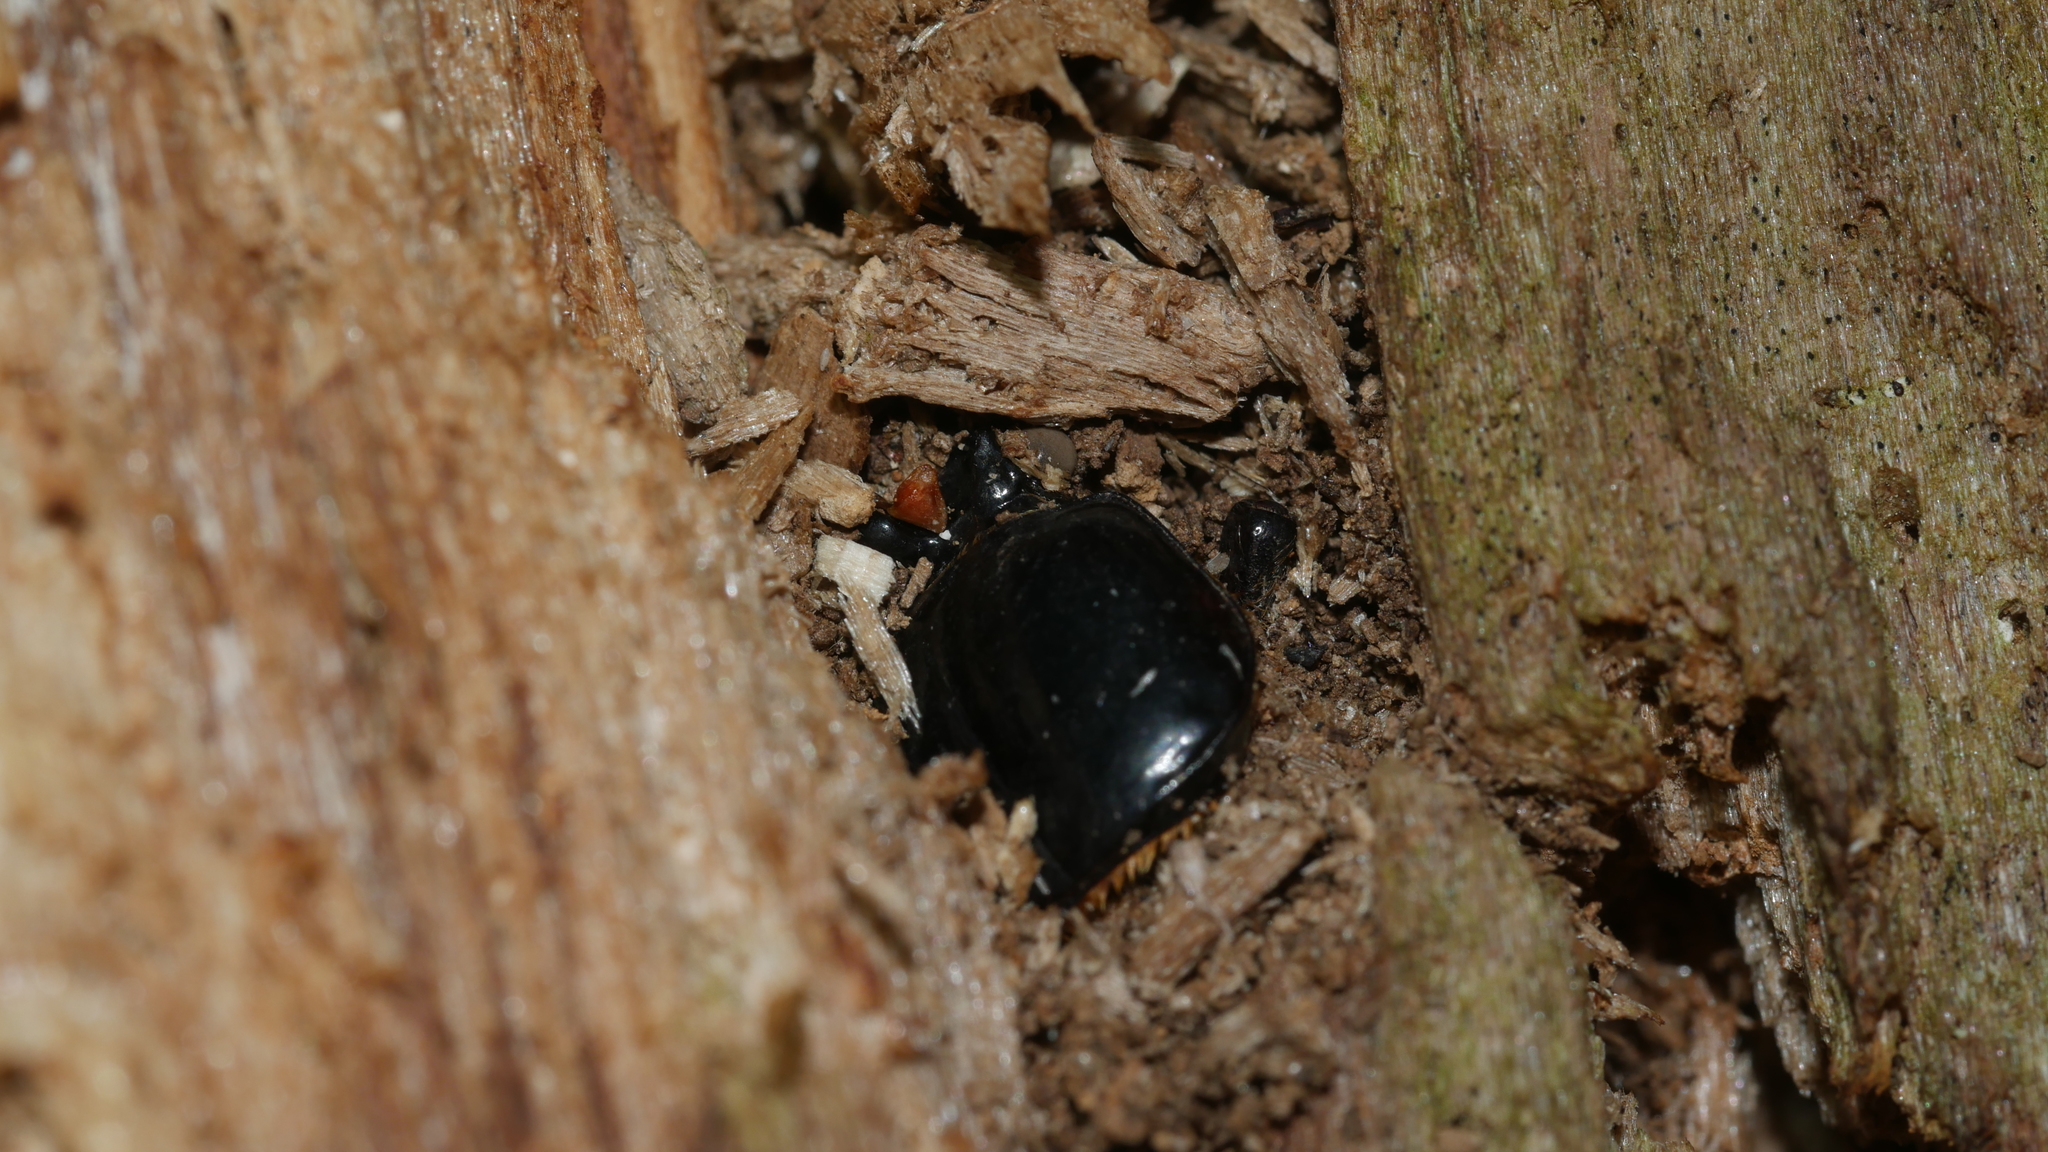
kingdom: Animalia
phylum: Arthropoda
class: Insecta
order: Coleoptera
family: Passalidae
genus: Odontotaenius
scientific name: Odontotaenius disjunctus
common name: Patent leather beetle
